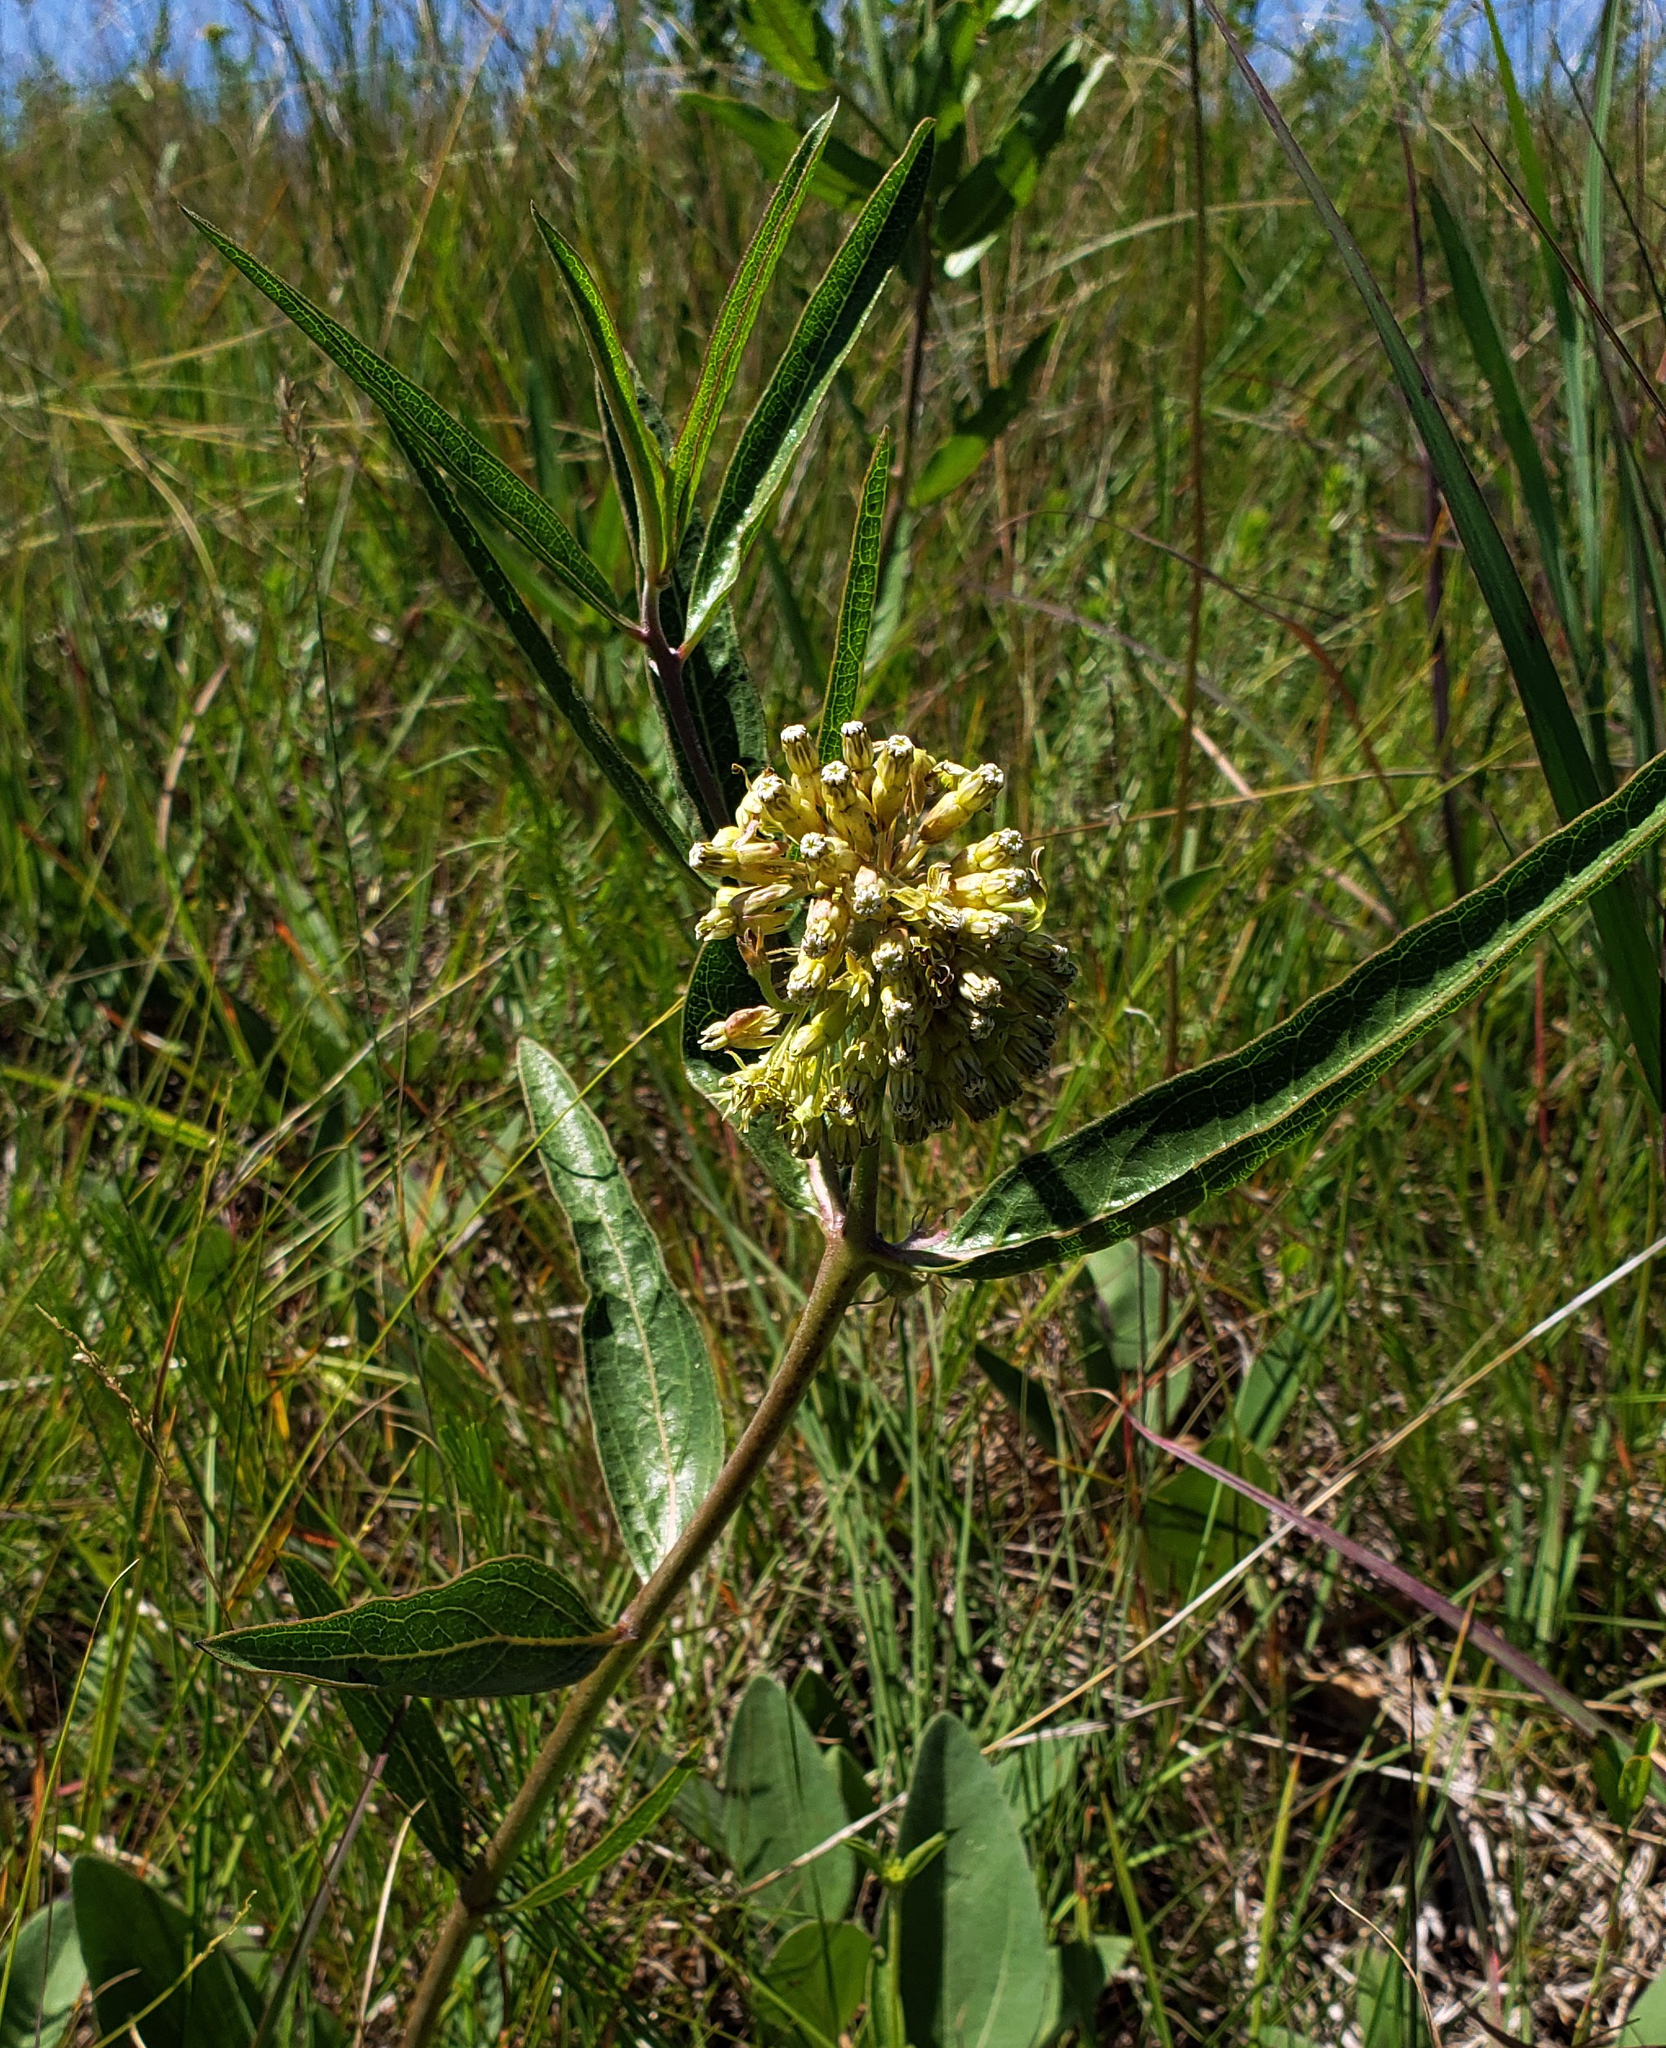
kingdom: Plantae
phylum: Tracheophyta
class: Magnoliopsida
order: Gentianales
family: Apocynaceae
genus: Asclepias
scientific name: Asclepias viridiflora
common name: Green comet milkweed
